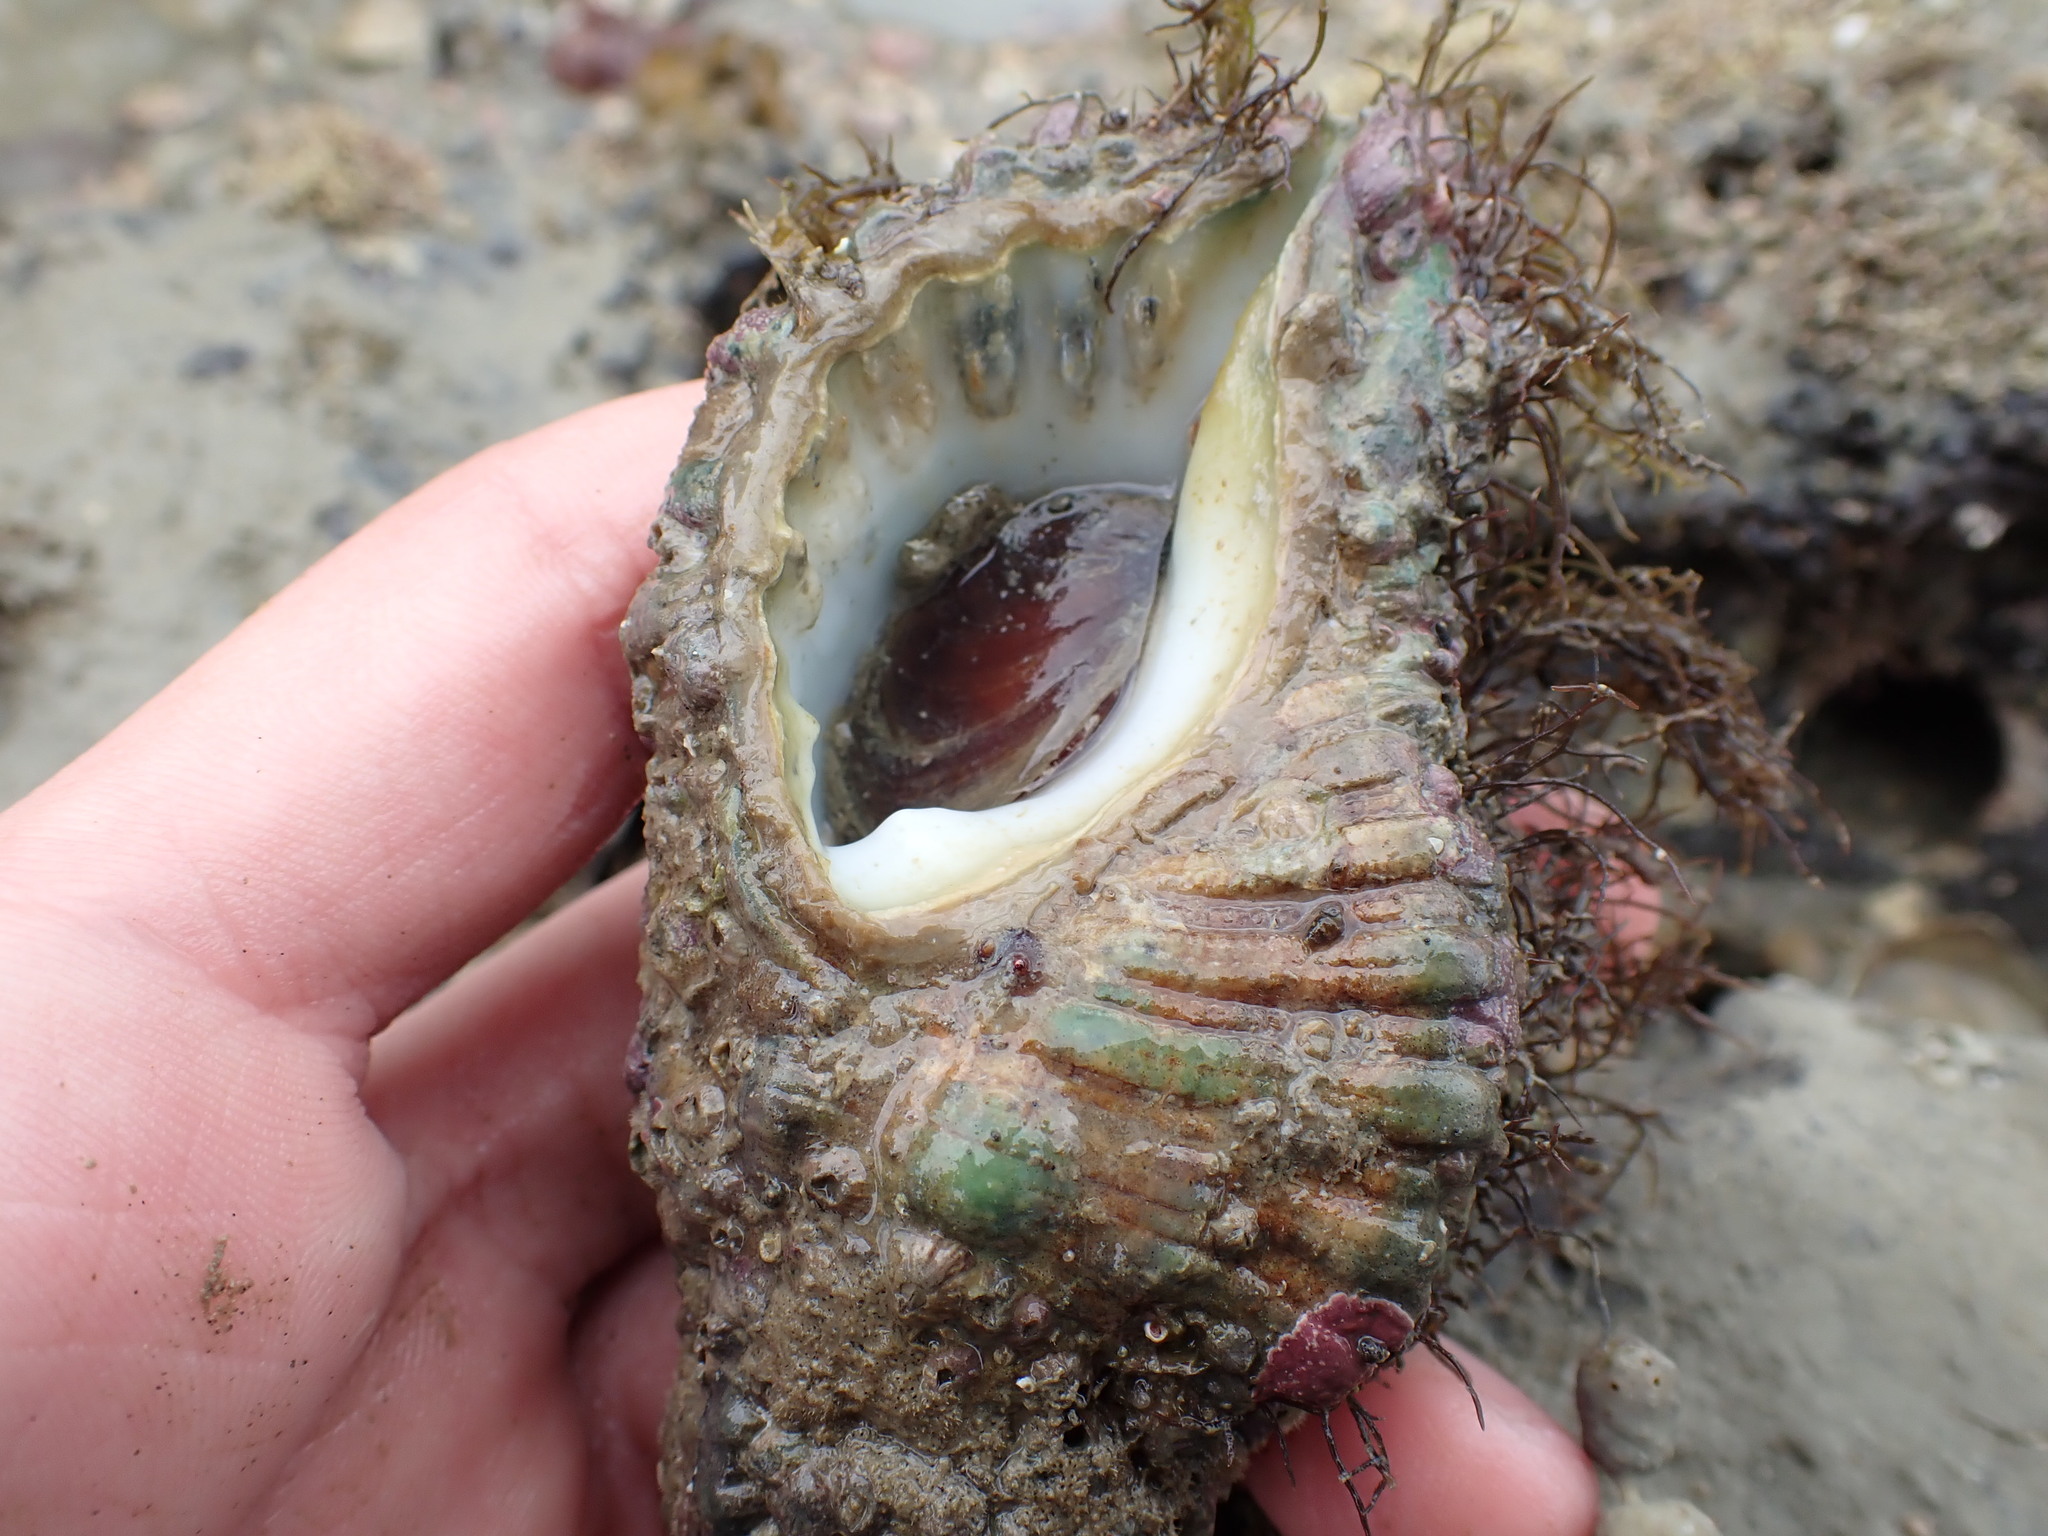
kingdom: Animalia
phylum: Mollusca
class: Gastropoda
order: Littorinimorpha
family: Cymatiidae
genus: Cabestana
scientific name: Cabestana spengleri
